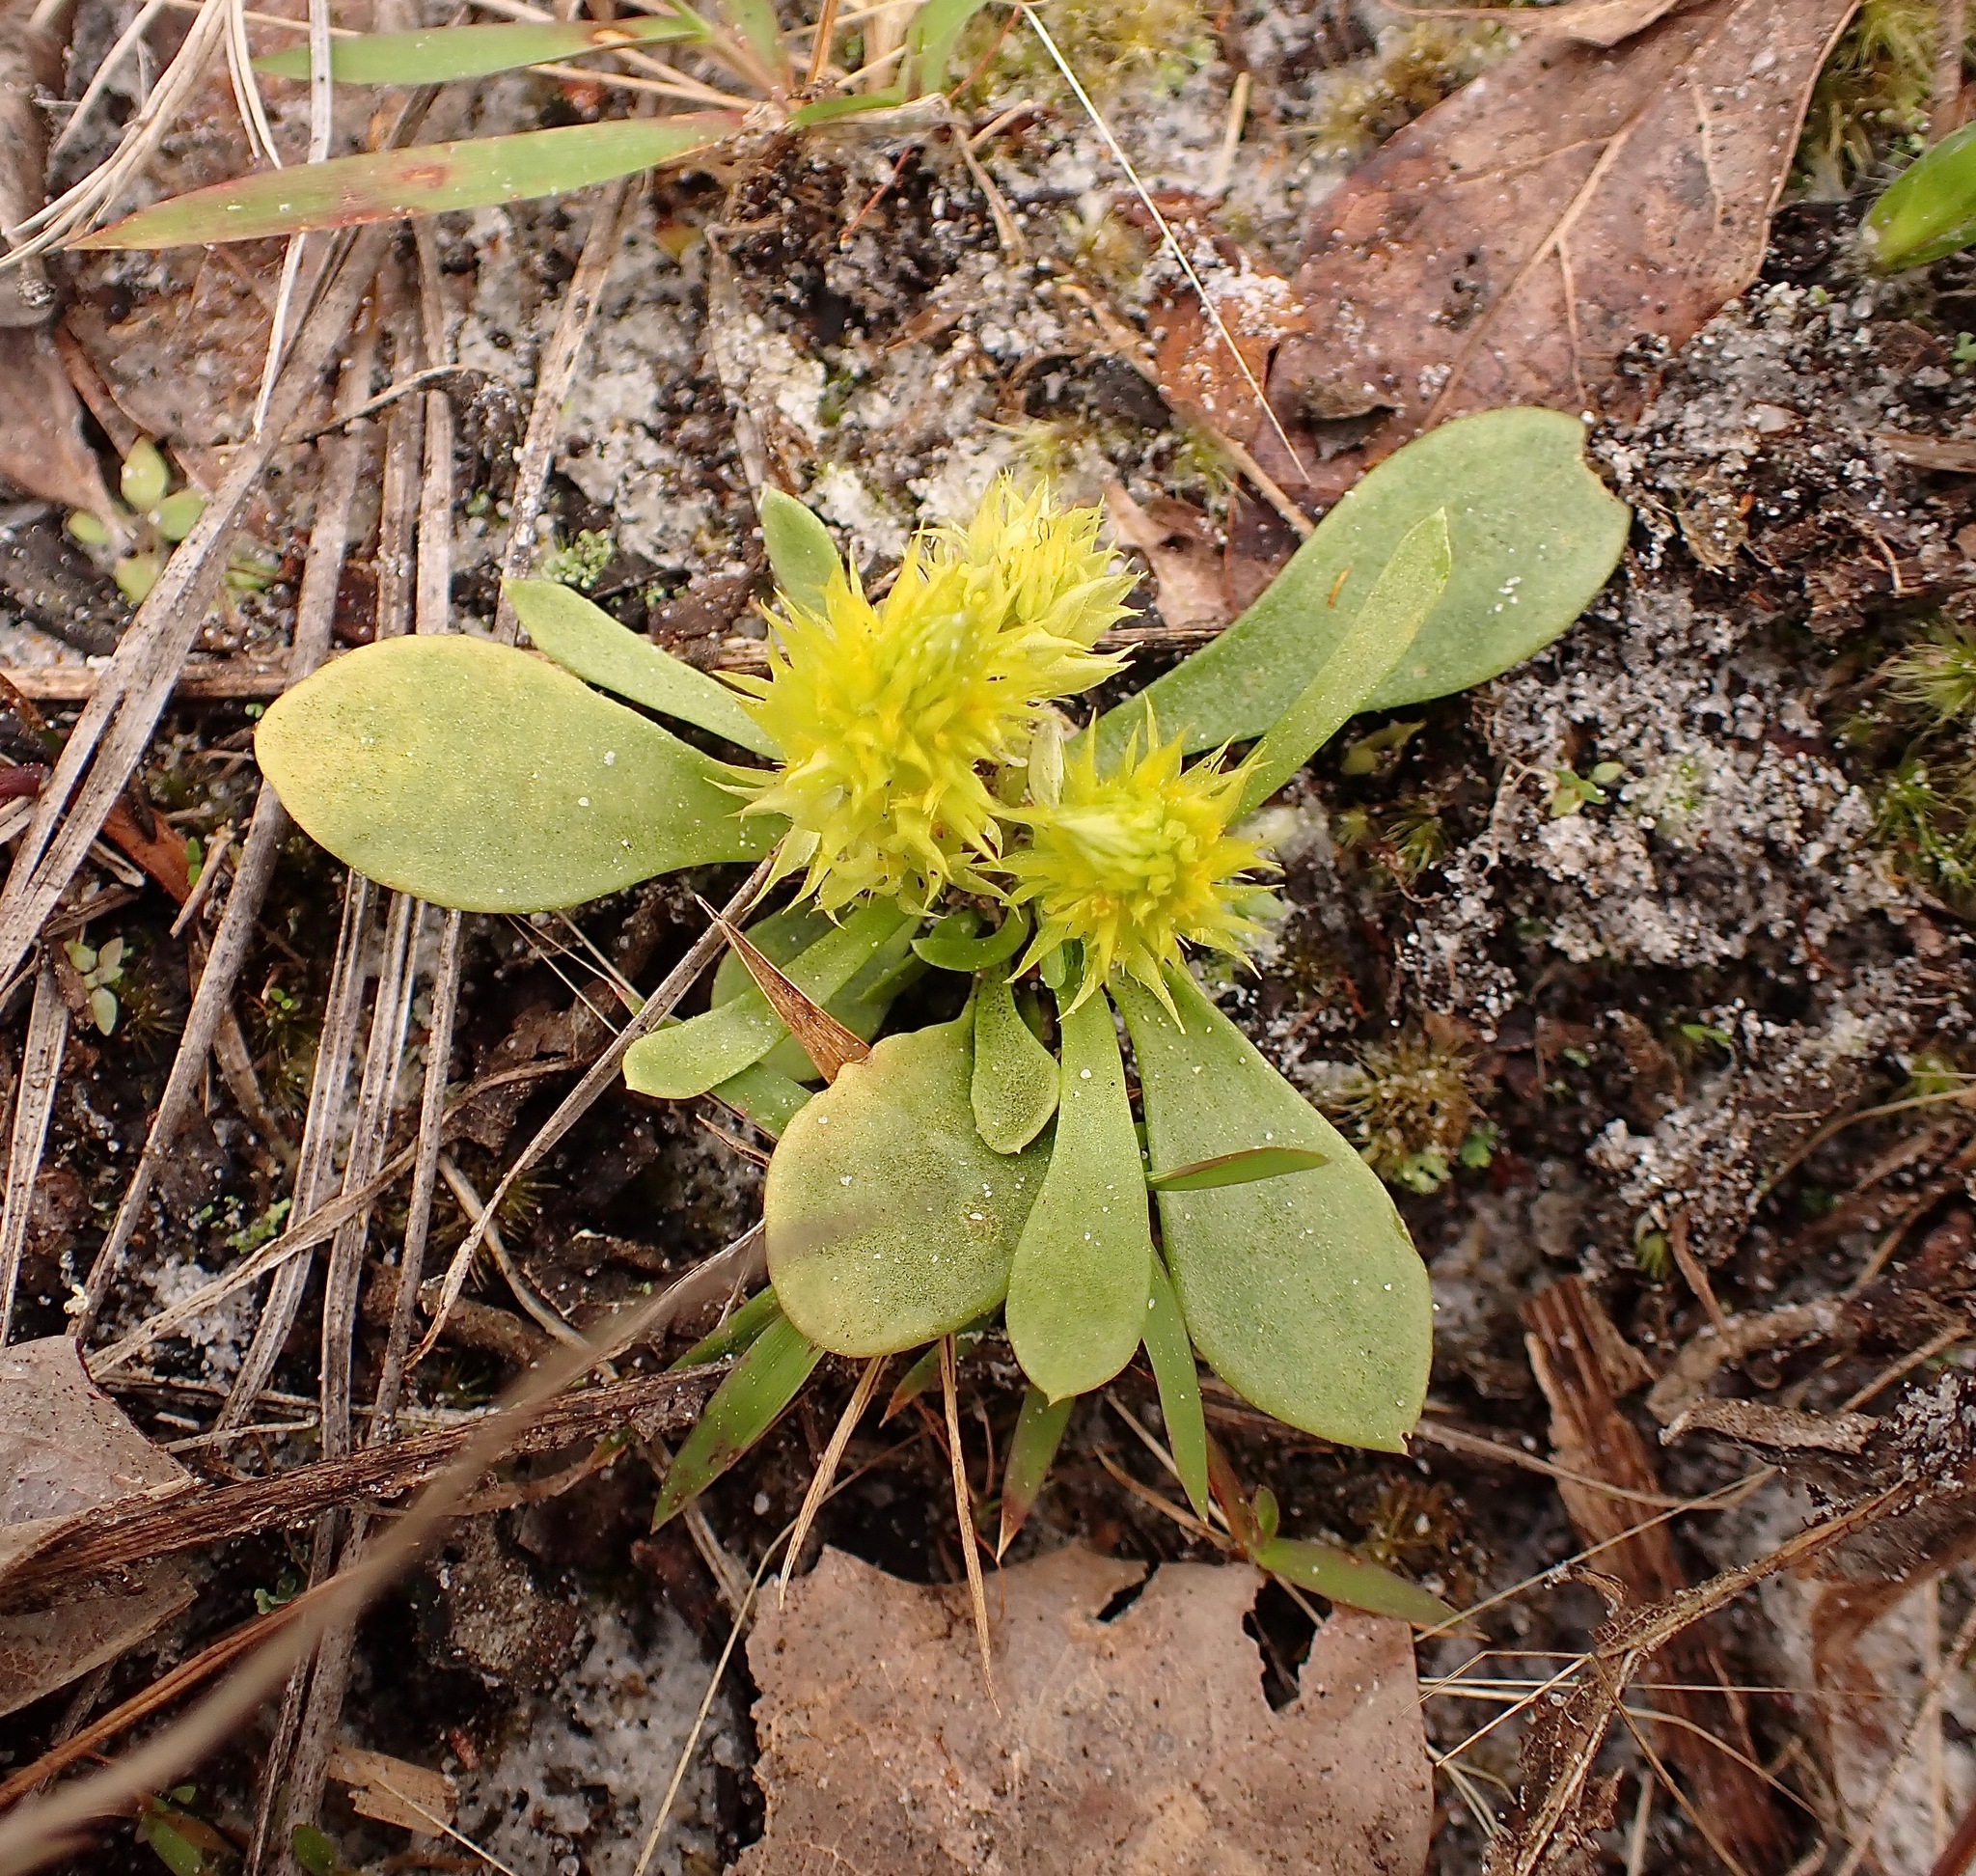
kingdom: Plantae
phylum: Tracheophyta
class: Magnoliopsida
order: Fabales
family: Polygalaceae
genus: Polygala
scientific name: Polygala nana
